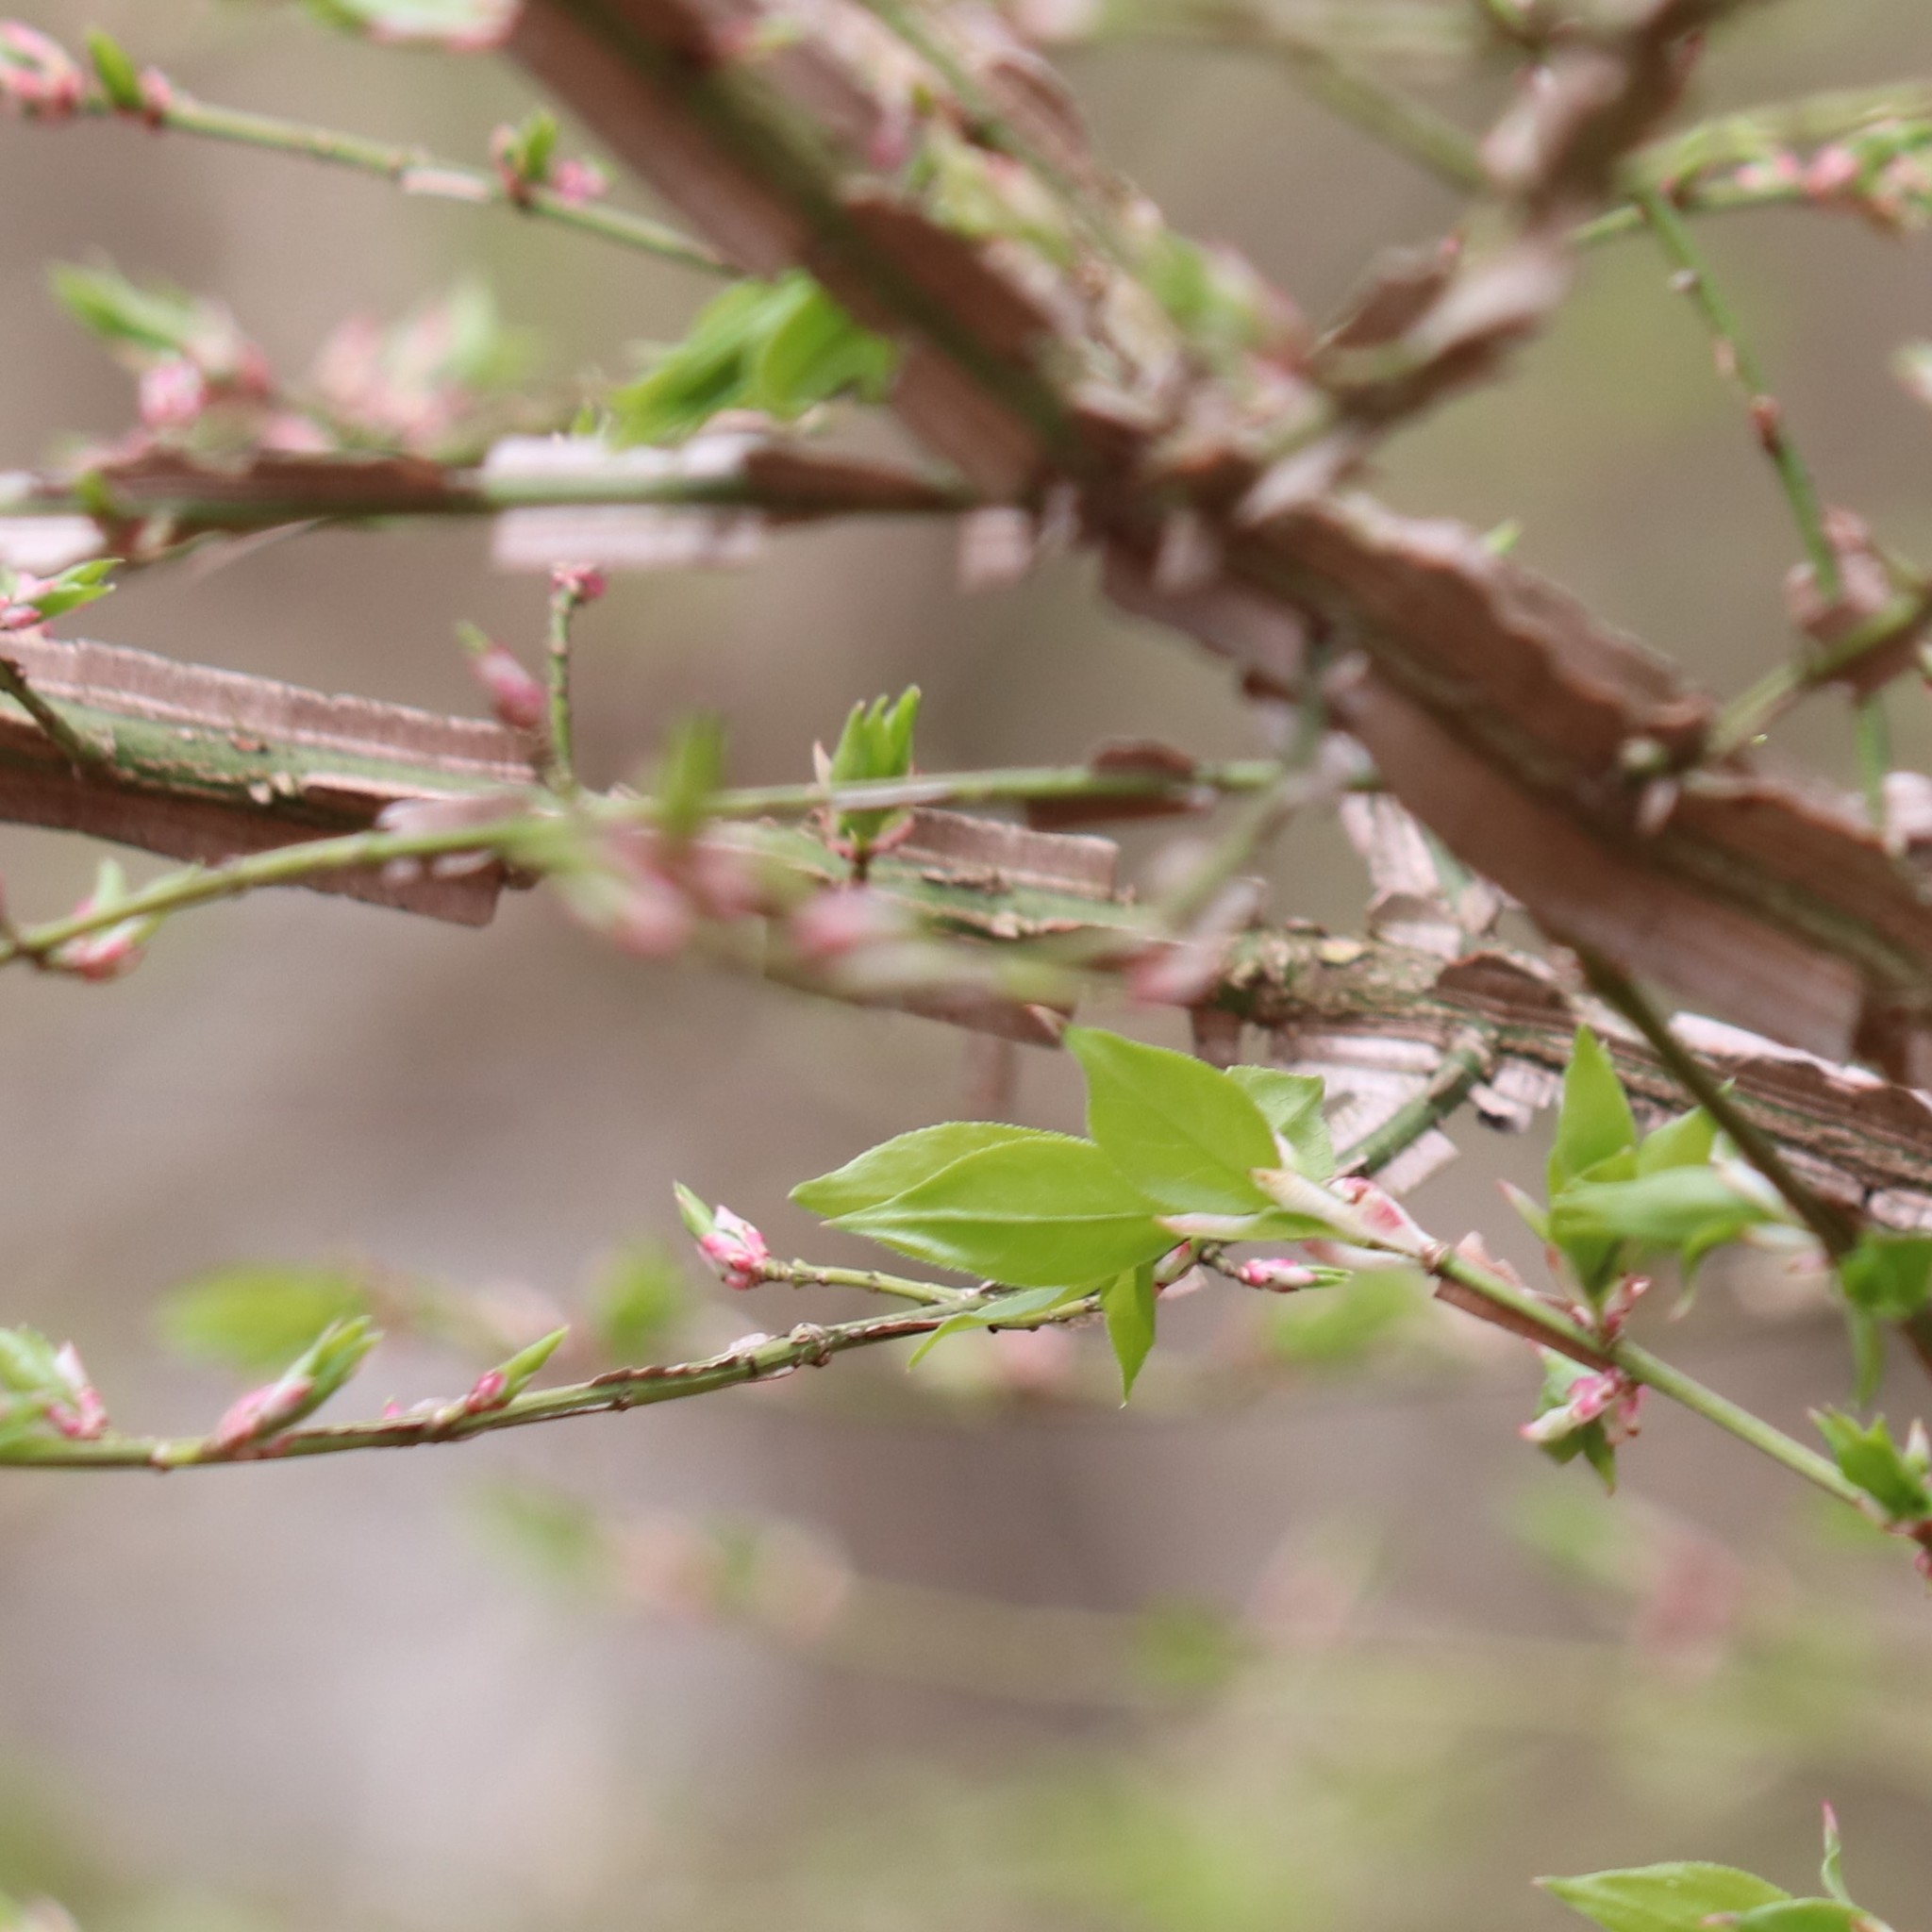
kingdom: Plantae
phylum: Tracheophyta
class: Magnoliopsida
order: Celastrales
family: Celastraceae
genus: Euonymus
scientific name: Euonymus alatus
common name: Winged euonymus
